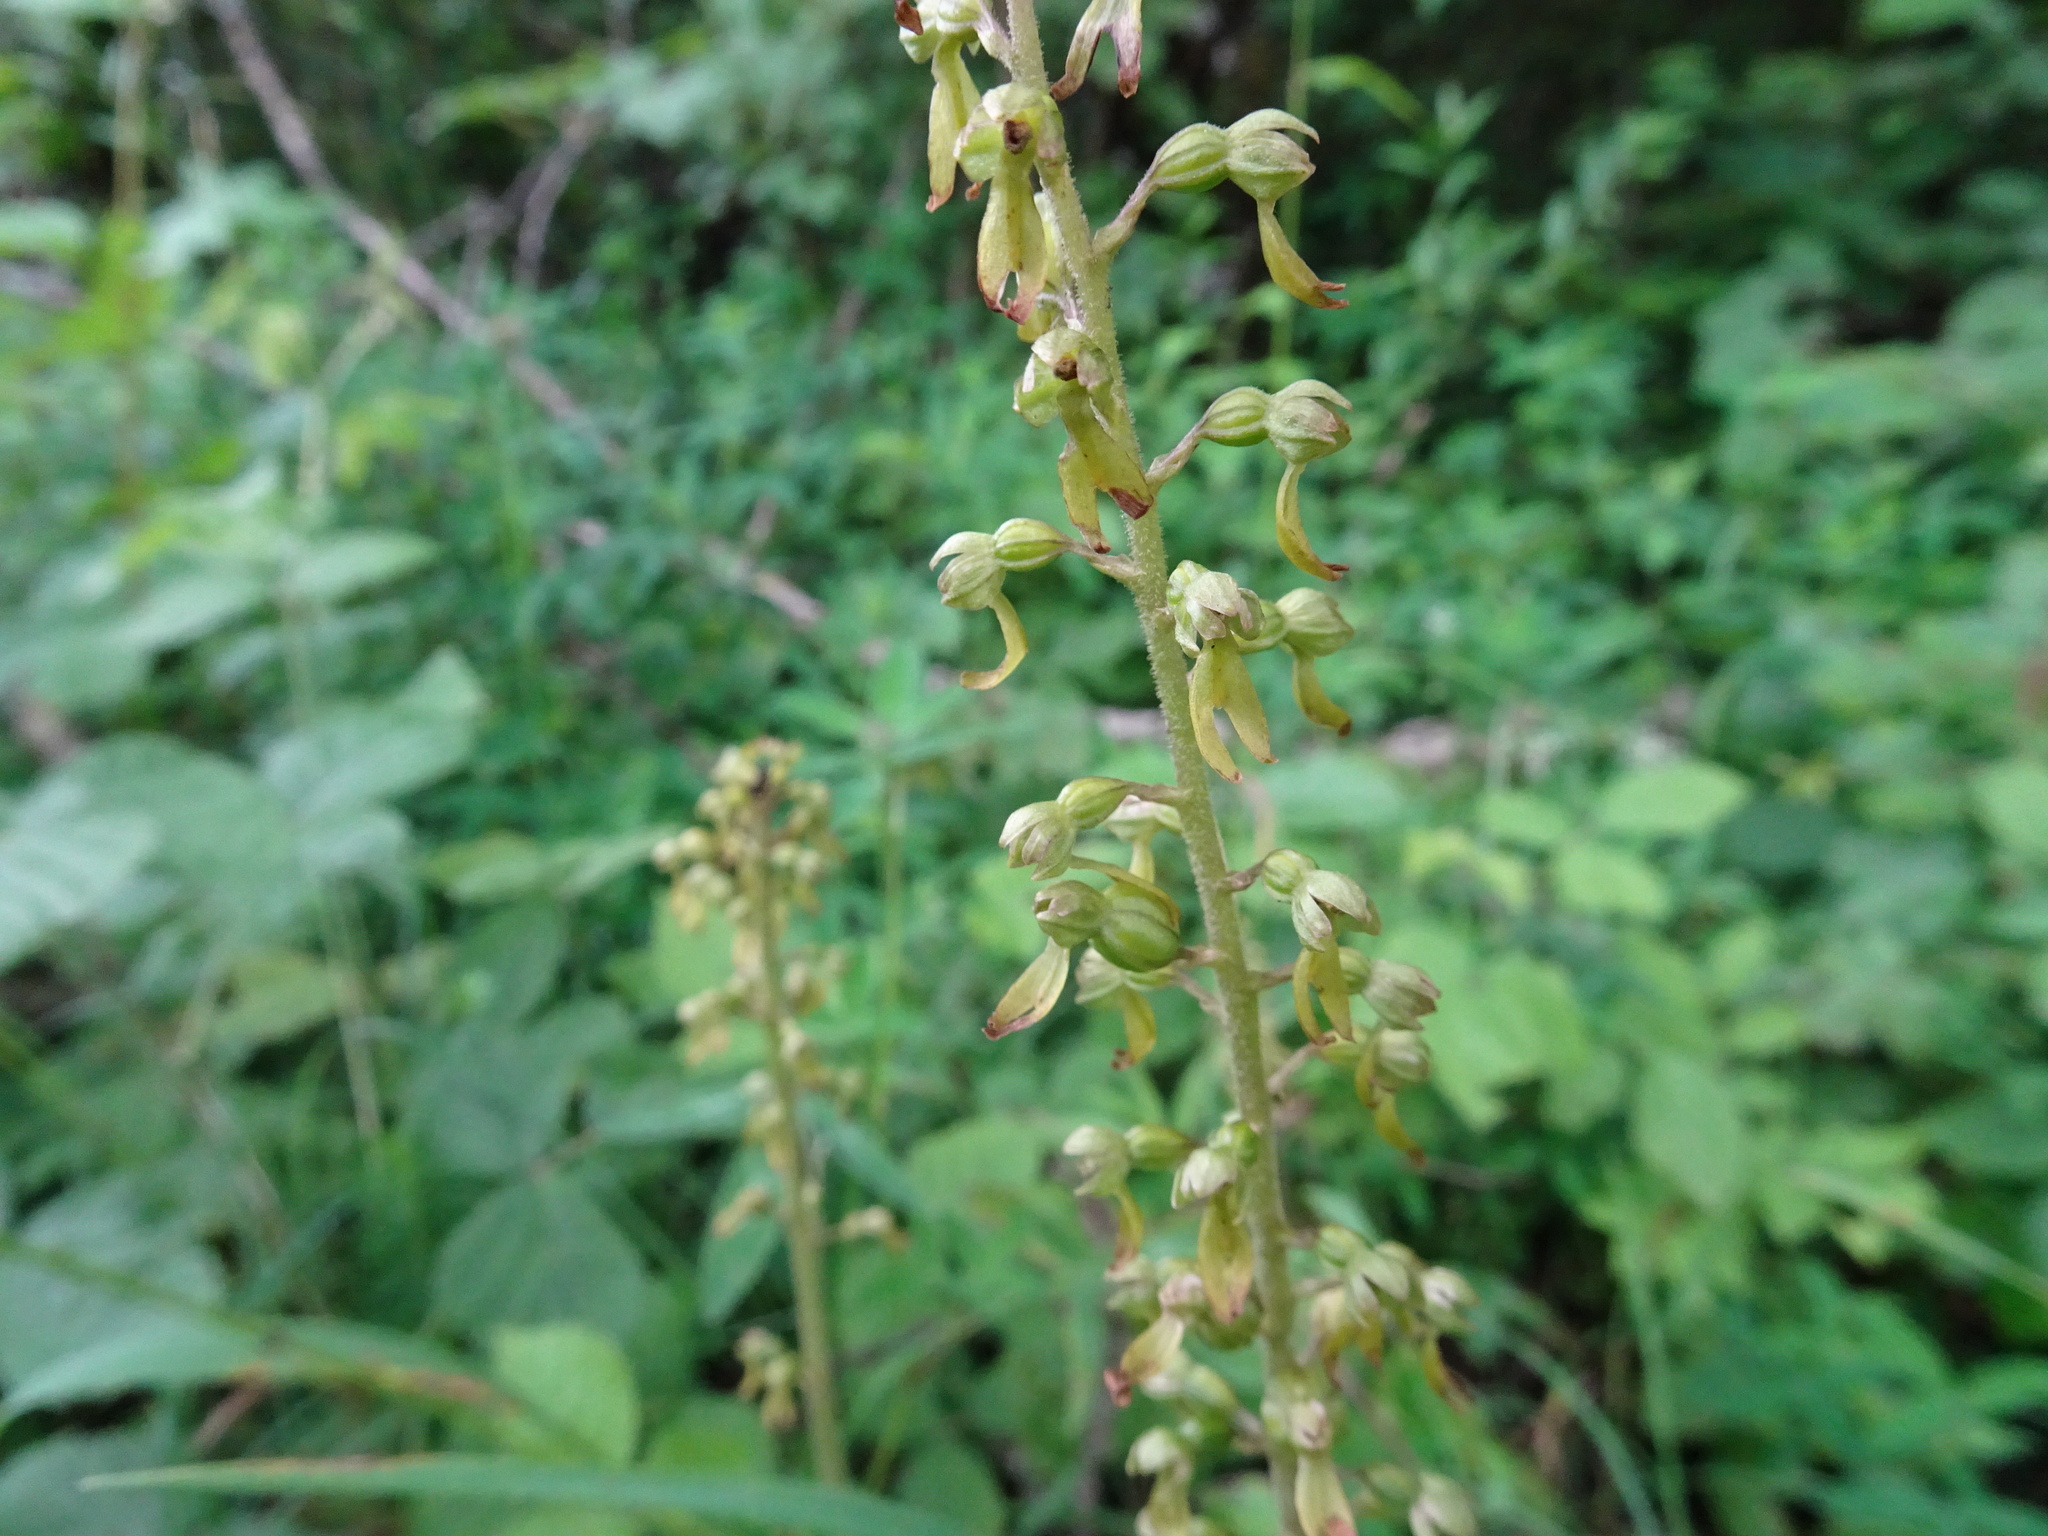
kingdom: Plantae
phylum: Tracheophyta
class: Liliopsida
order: Asparagales
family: Orchidaceae
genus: Neottia
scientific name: Neottia ovata
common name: Common twayblade
